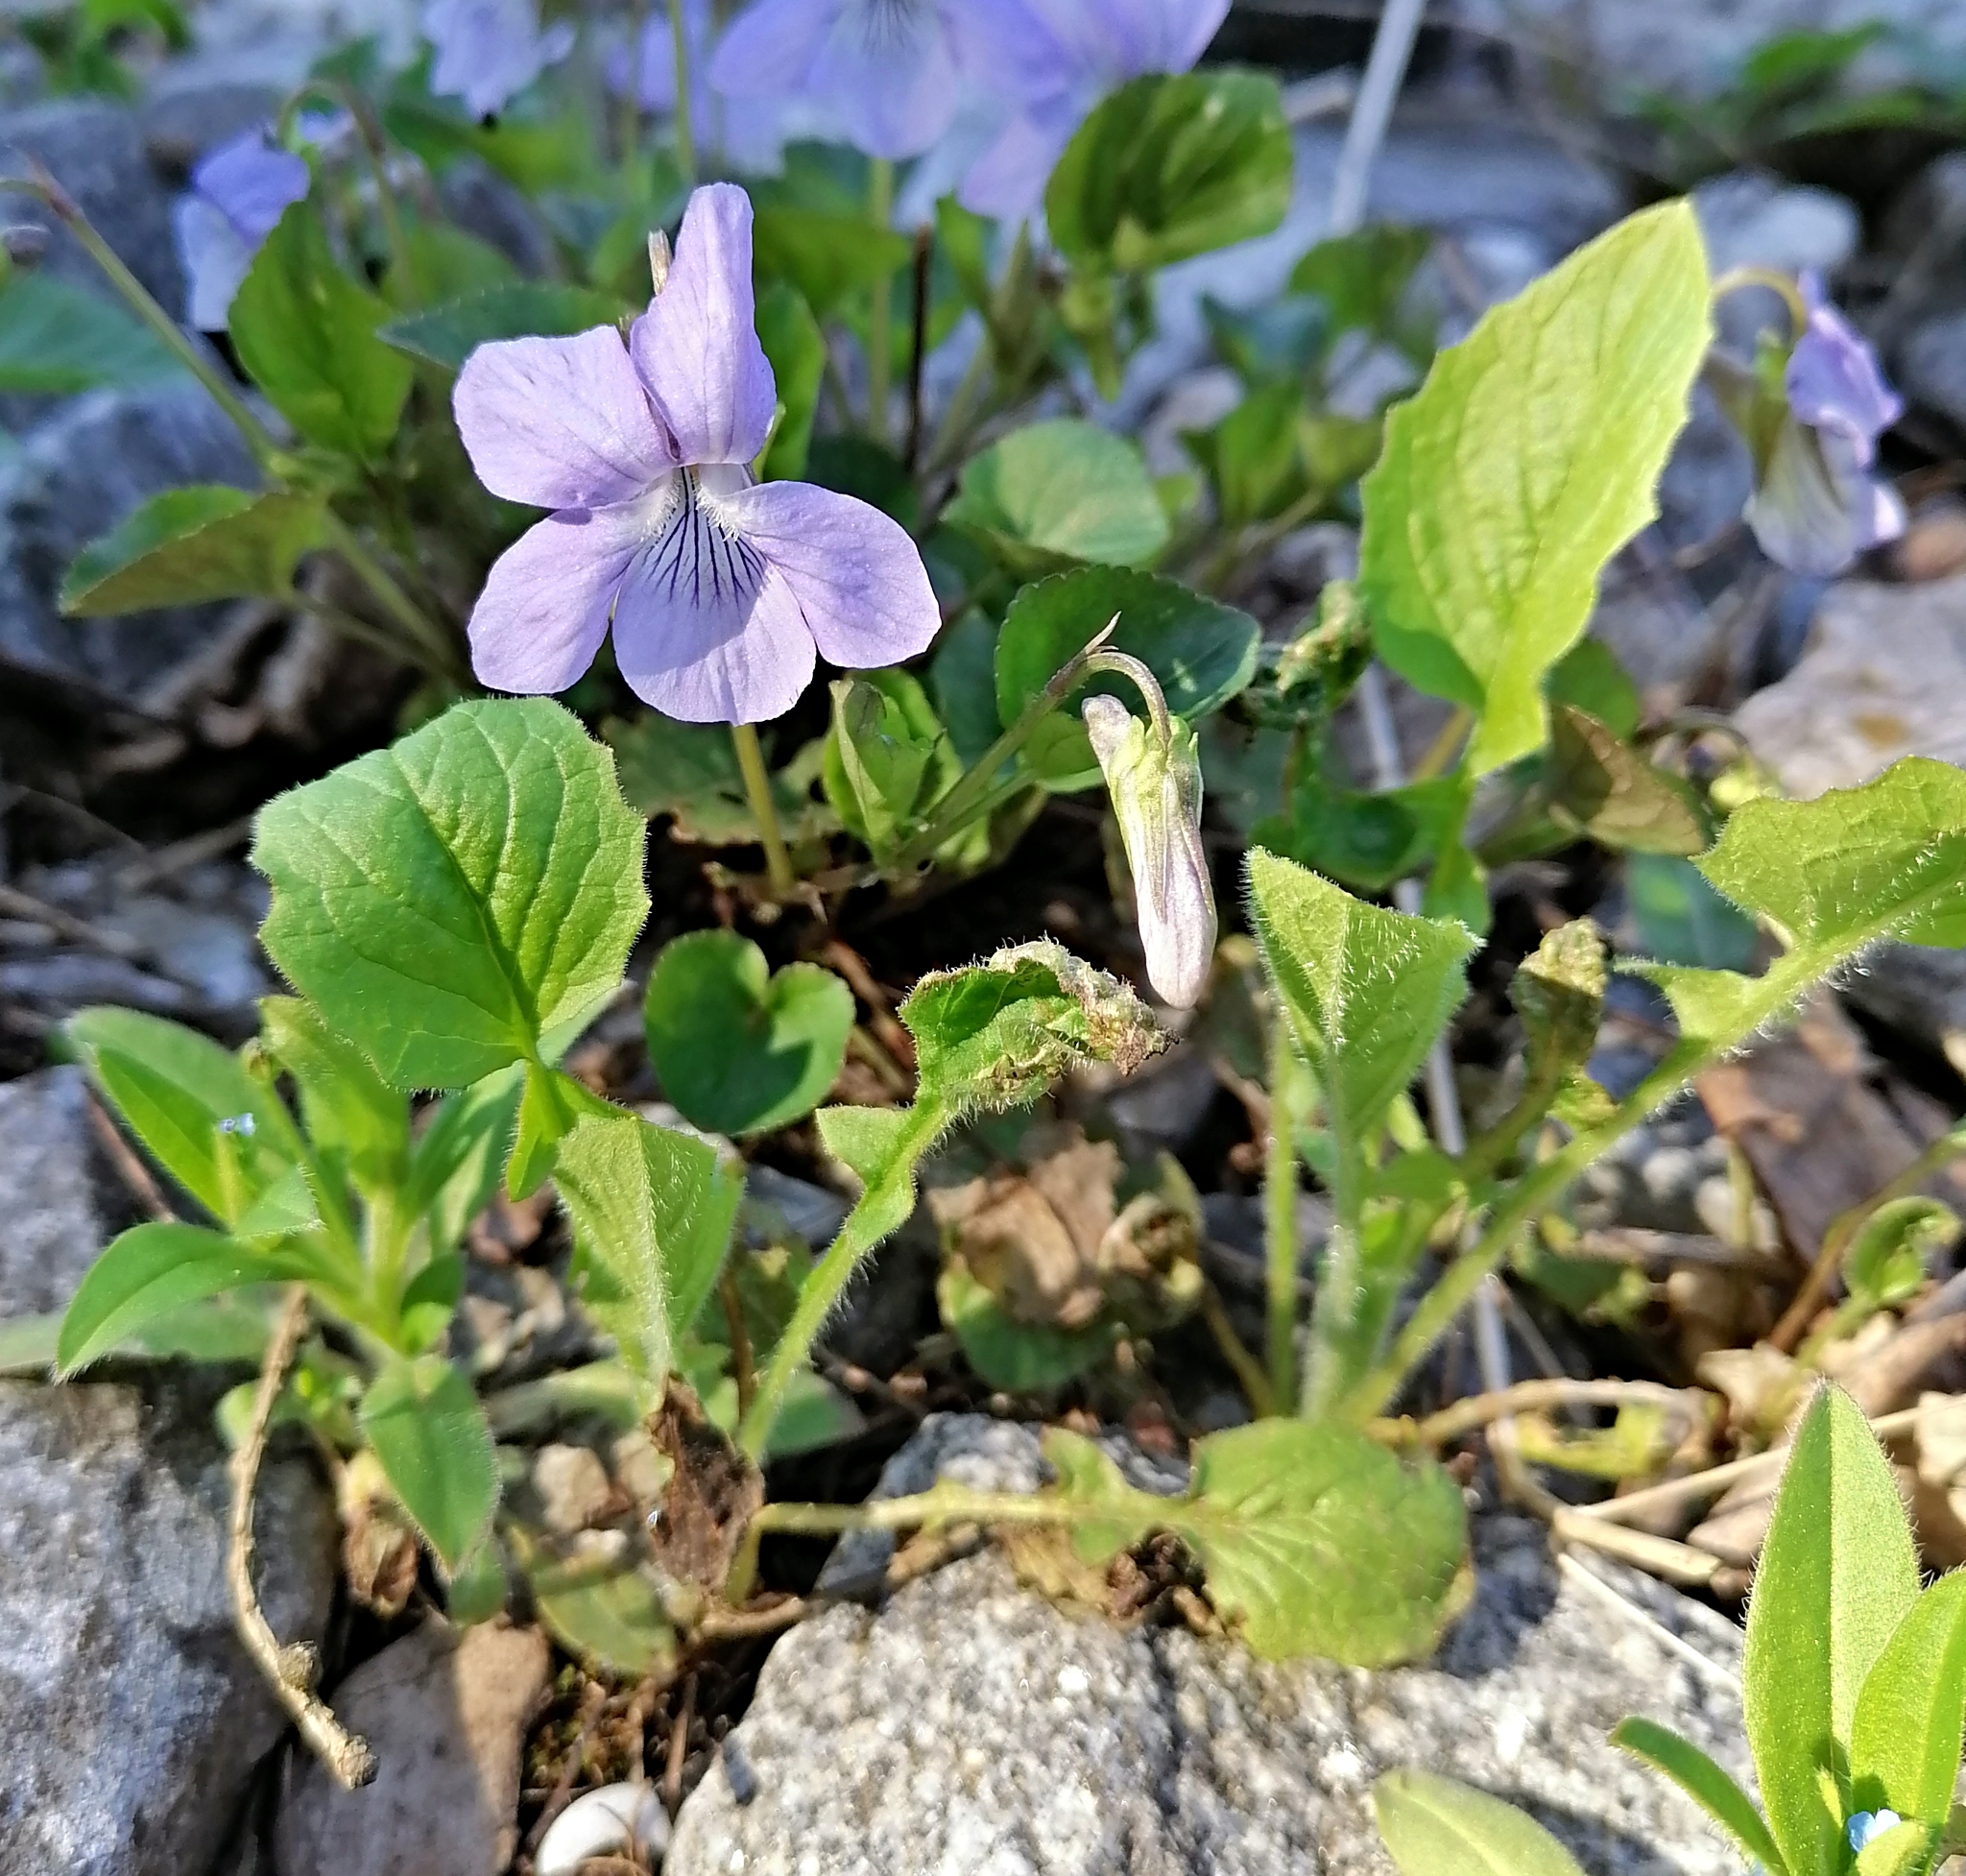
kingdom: Plantae
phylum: Tracheophyta
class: Magnoliopsida
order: Malpighiales
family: Violaceae
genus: Viola
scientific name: Viola canina
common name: Heath dog-violet
